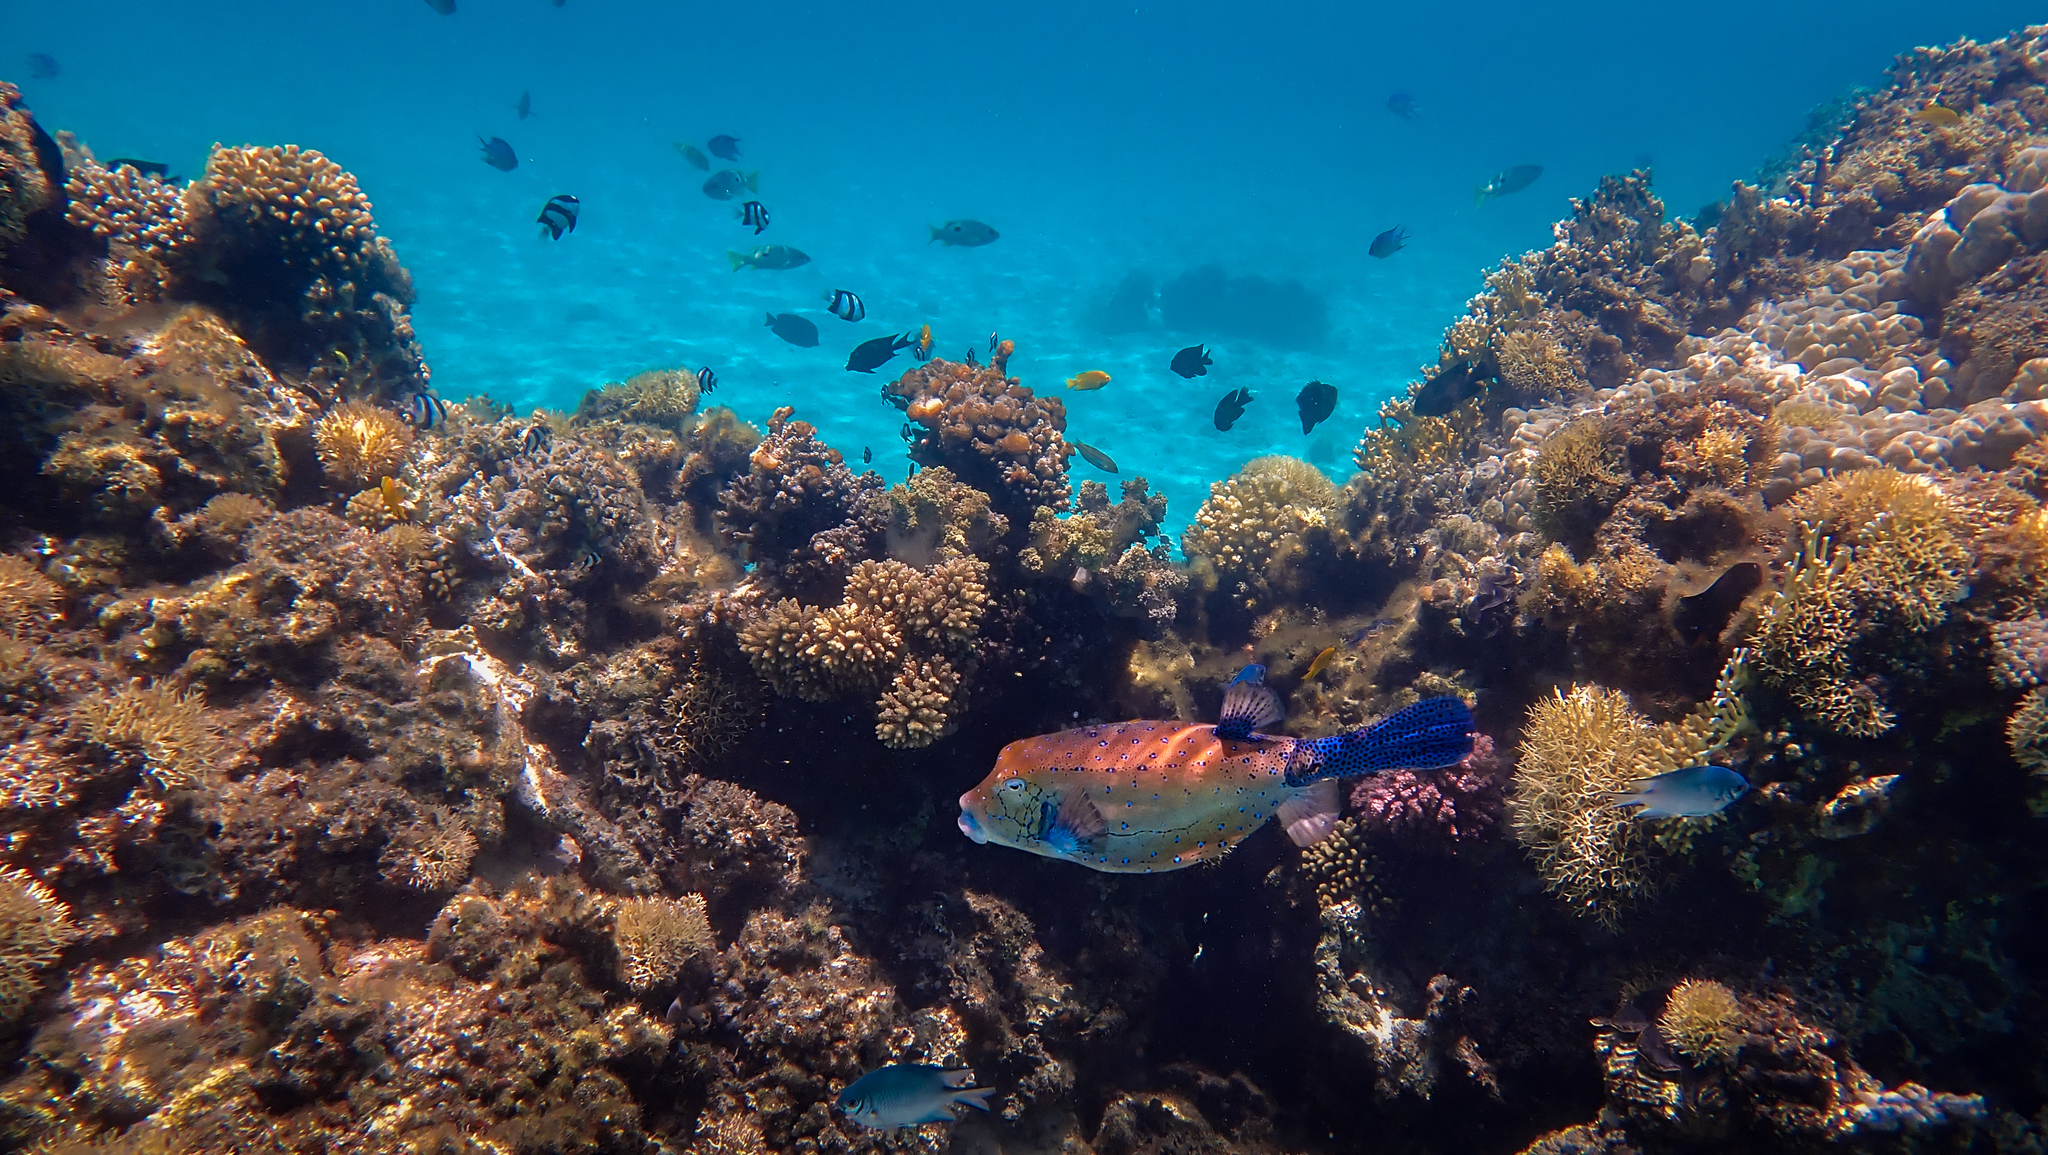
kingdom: Animalia
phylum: Chordata
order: Tetraodontiformes
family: Ostraciidae
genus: Ostracion
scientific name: Ostracion cubicus
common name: Cube trunkfish
